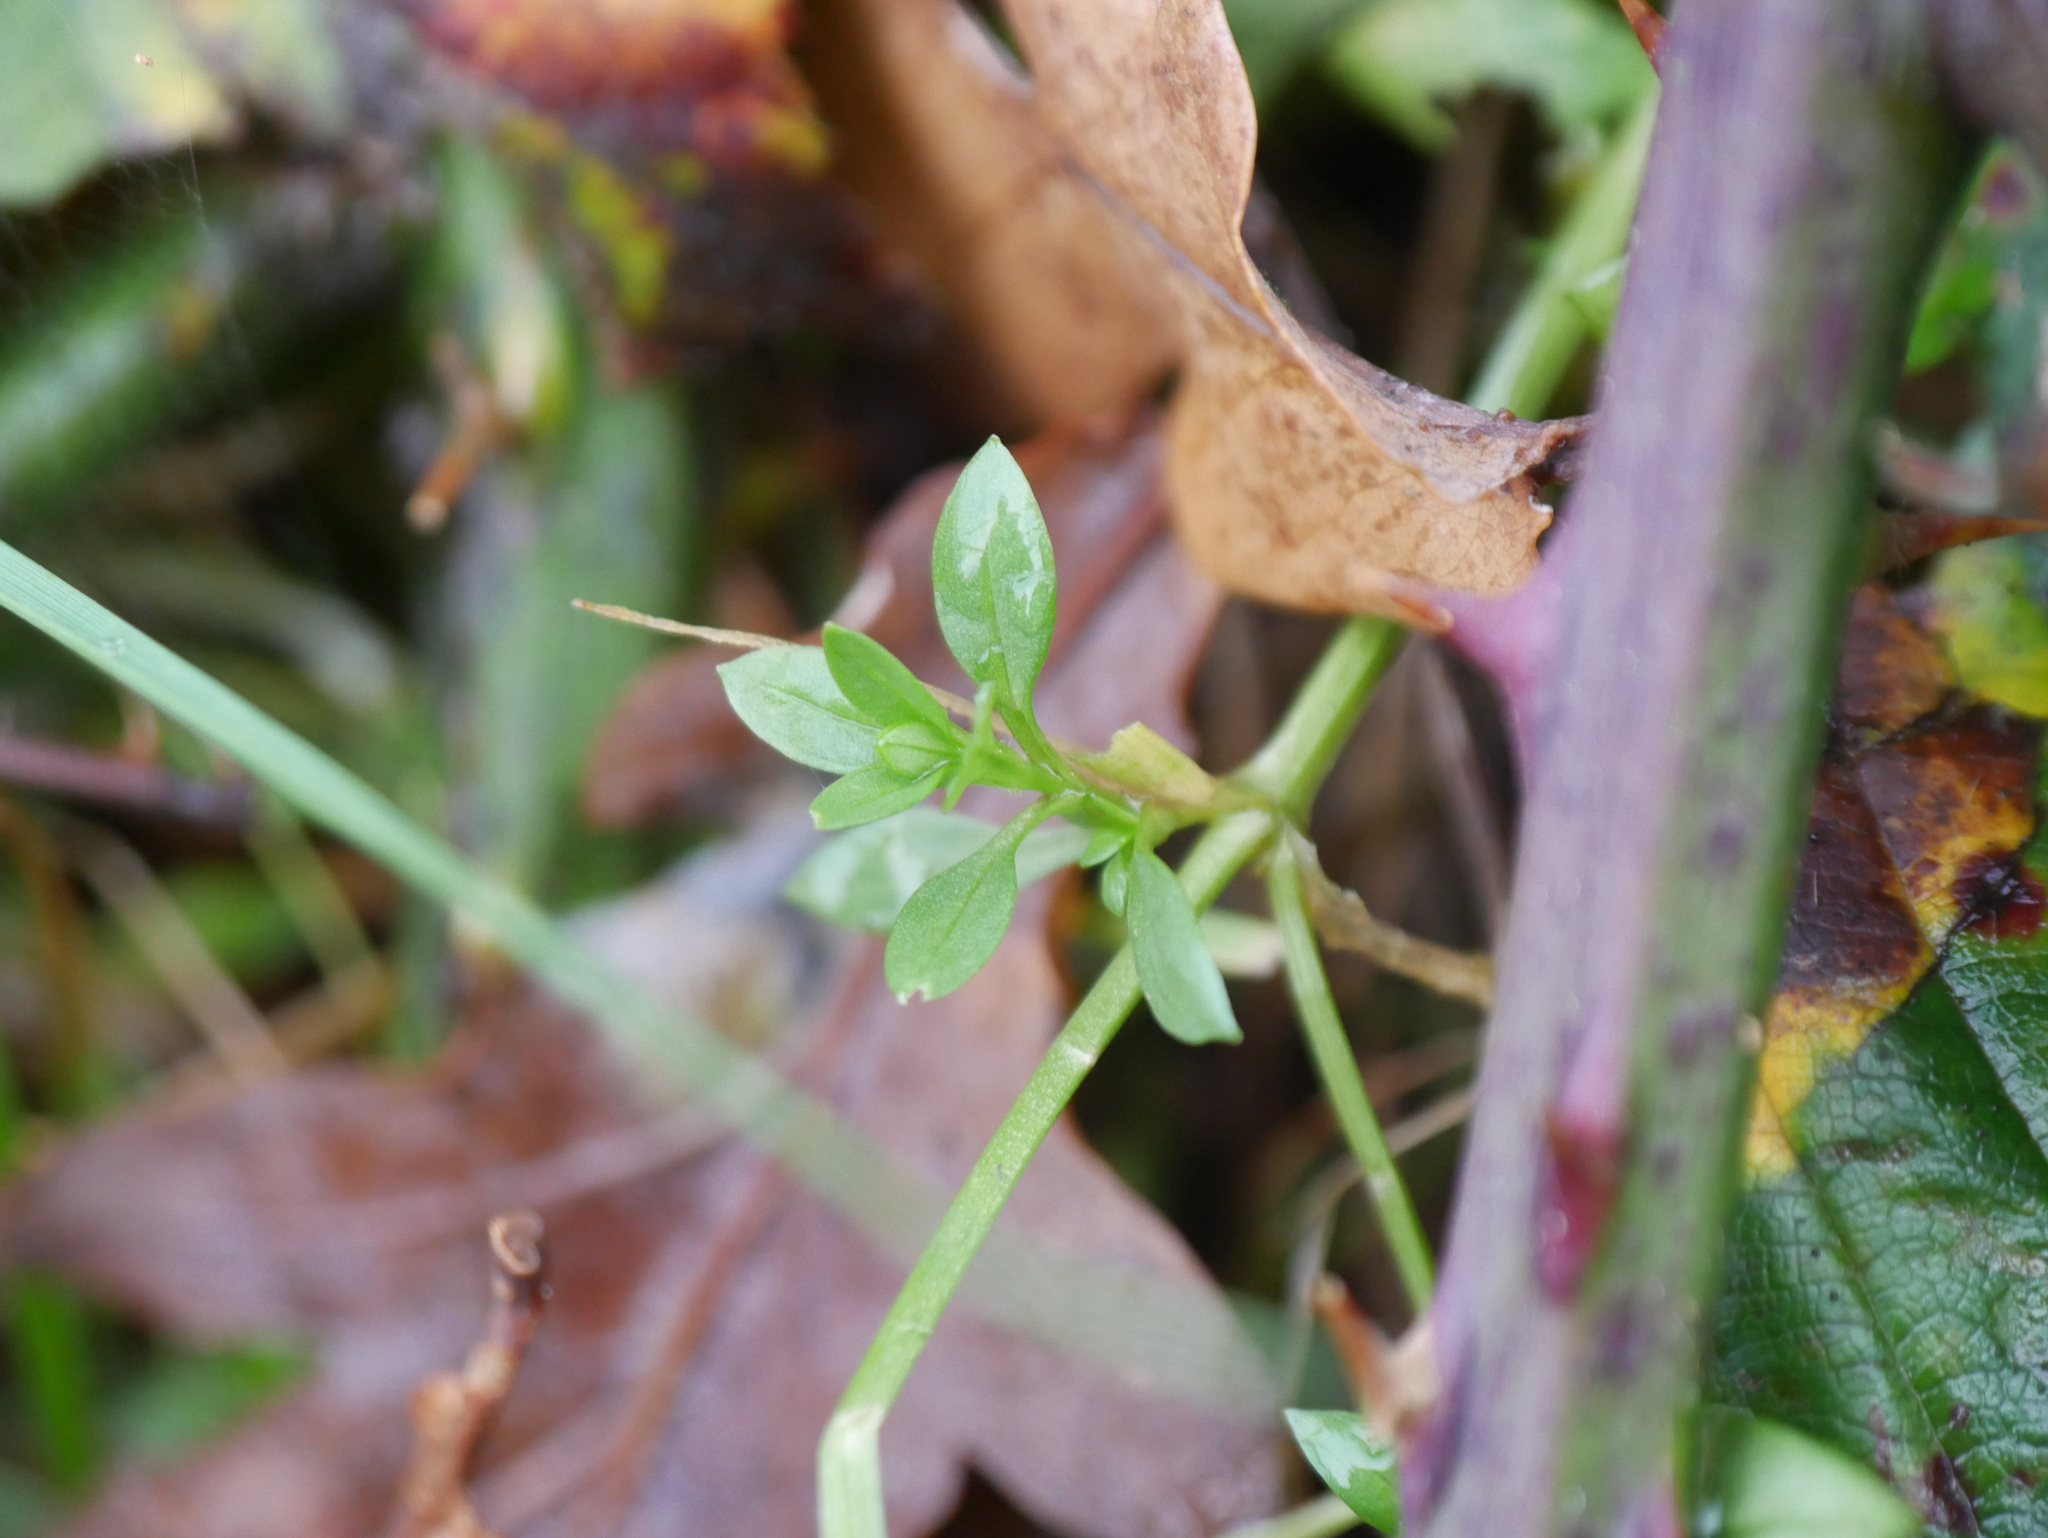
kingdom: Plantae
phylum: Tracheophyta
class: Magnoliopsida
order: Caryophyllales
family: Caryophyllaceae
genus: Stellaria
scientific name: Stellaria graminea
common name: Grass-like starwort
